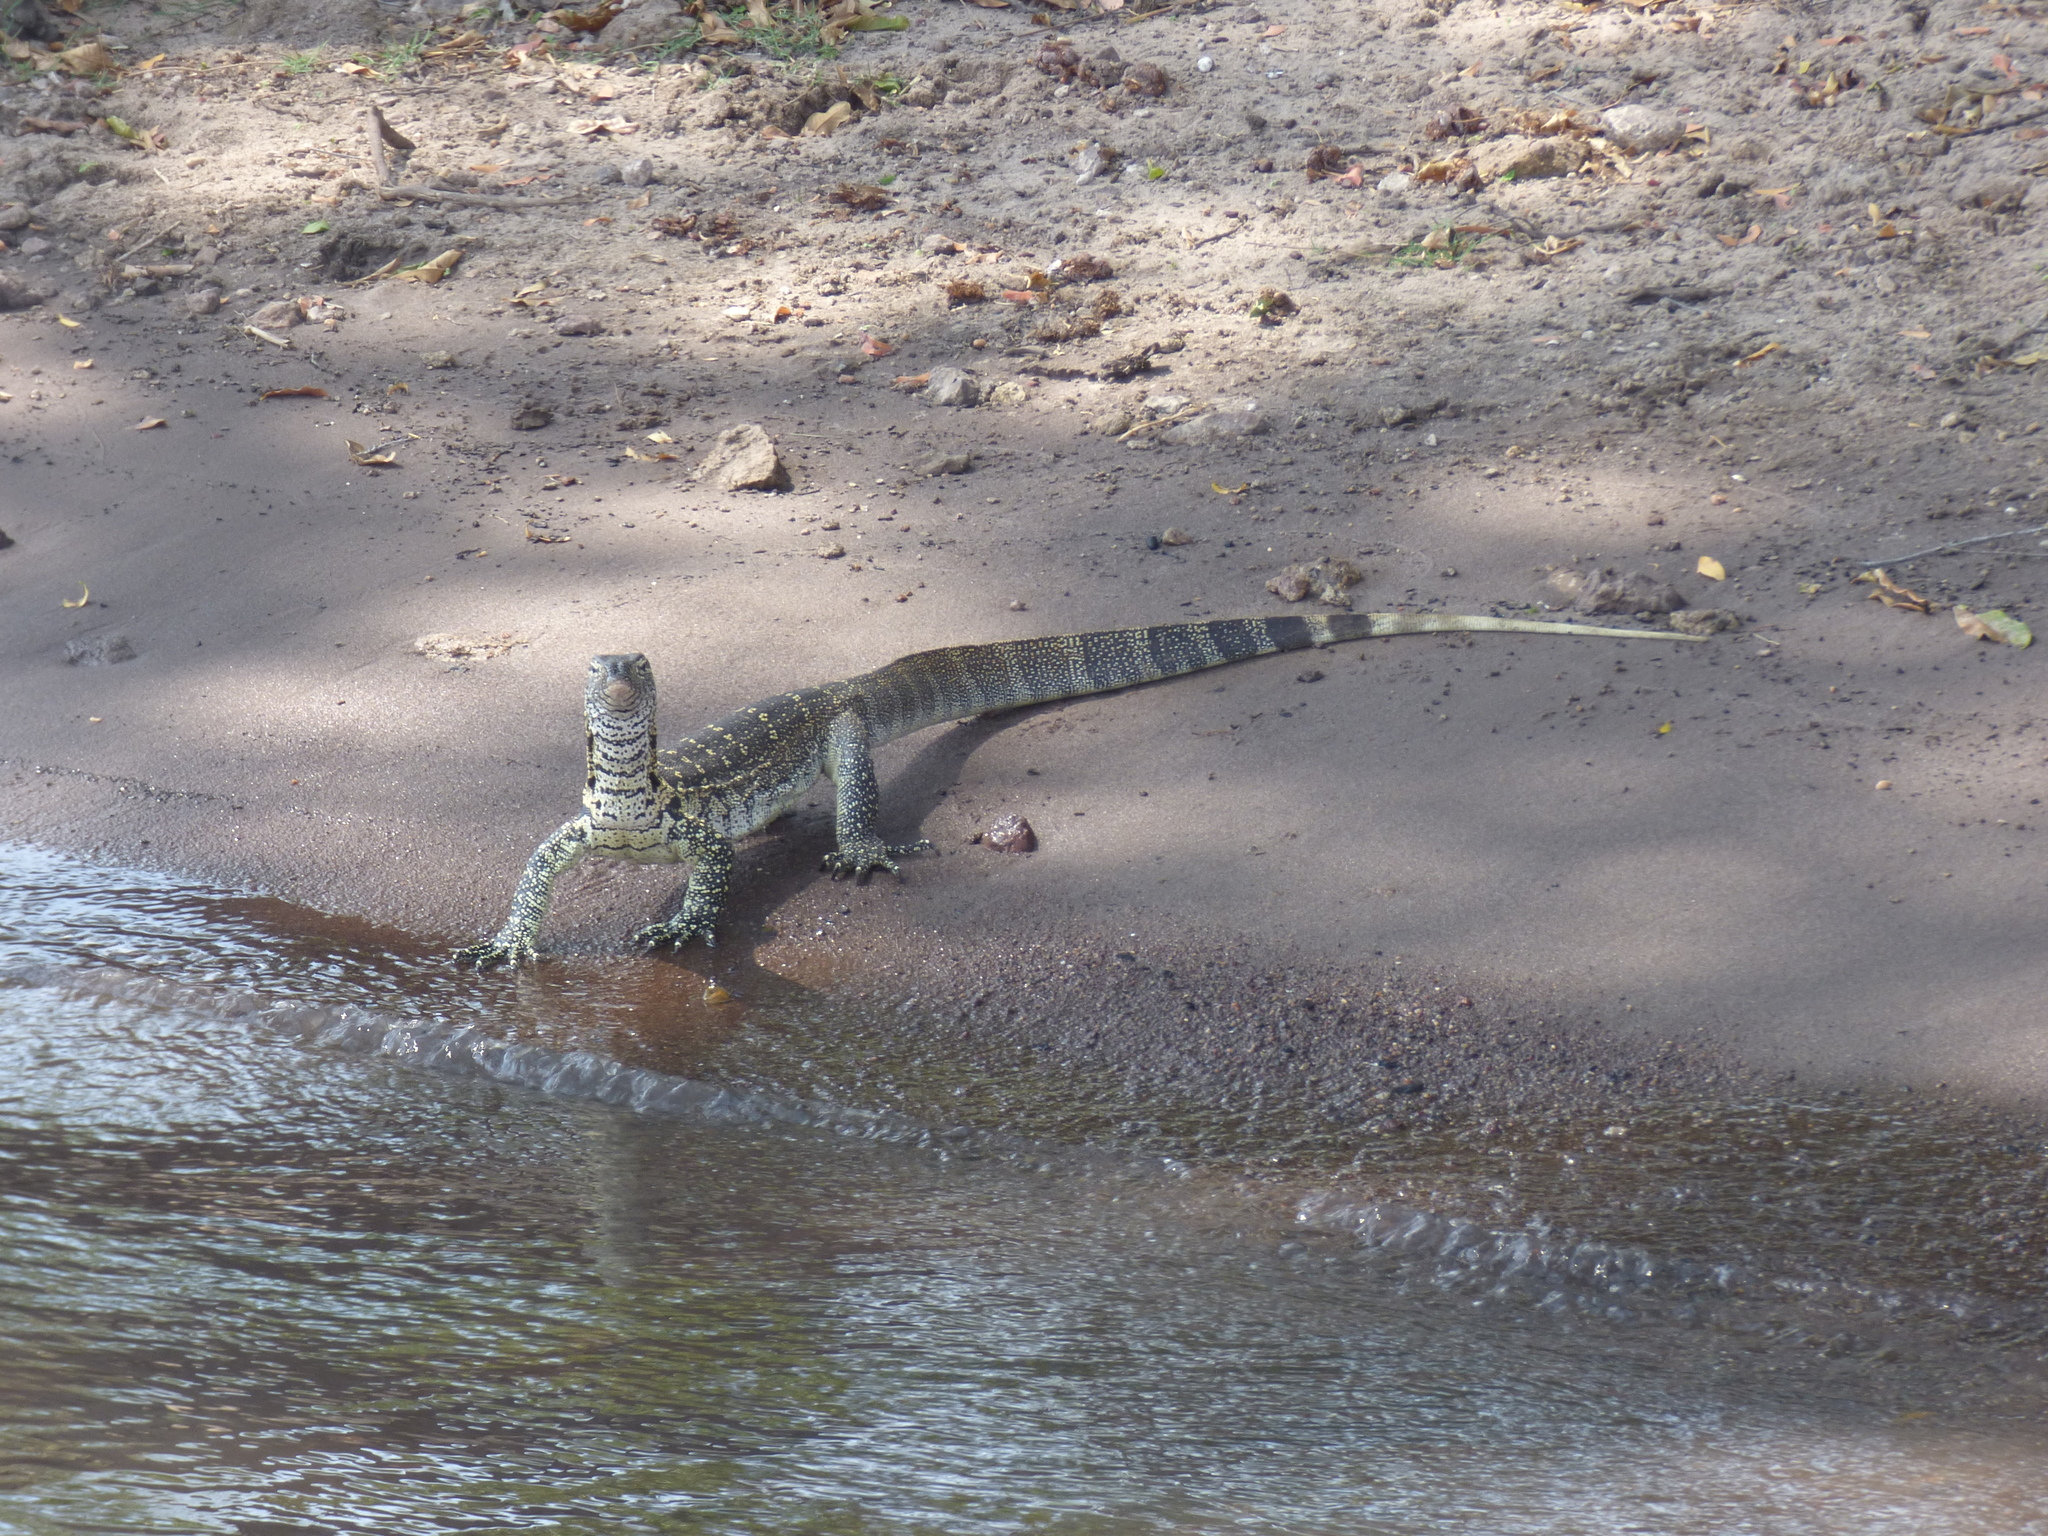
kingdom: Animalia
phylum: Chordata
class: Squamata
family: Varanidae
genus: Varanus
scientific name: Varanus niloticus
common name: Nile monitor
